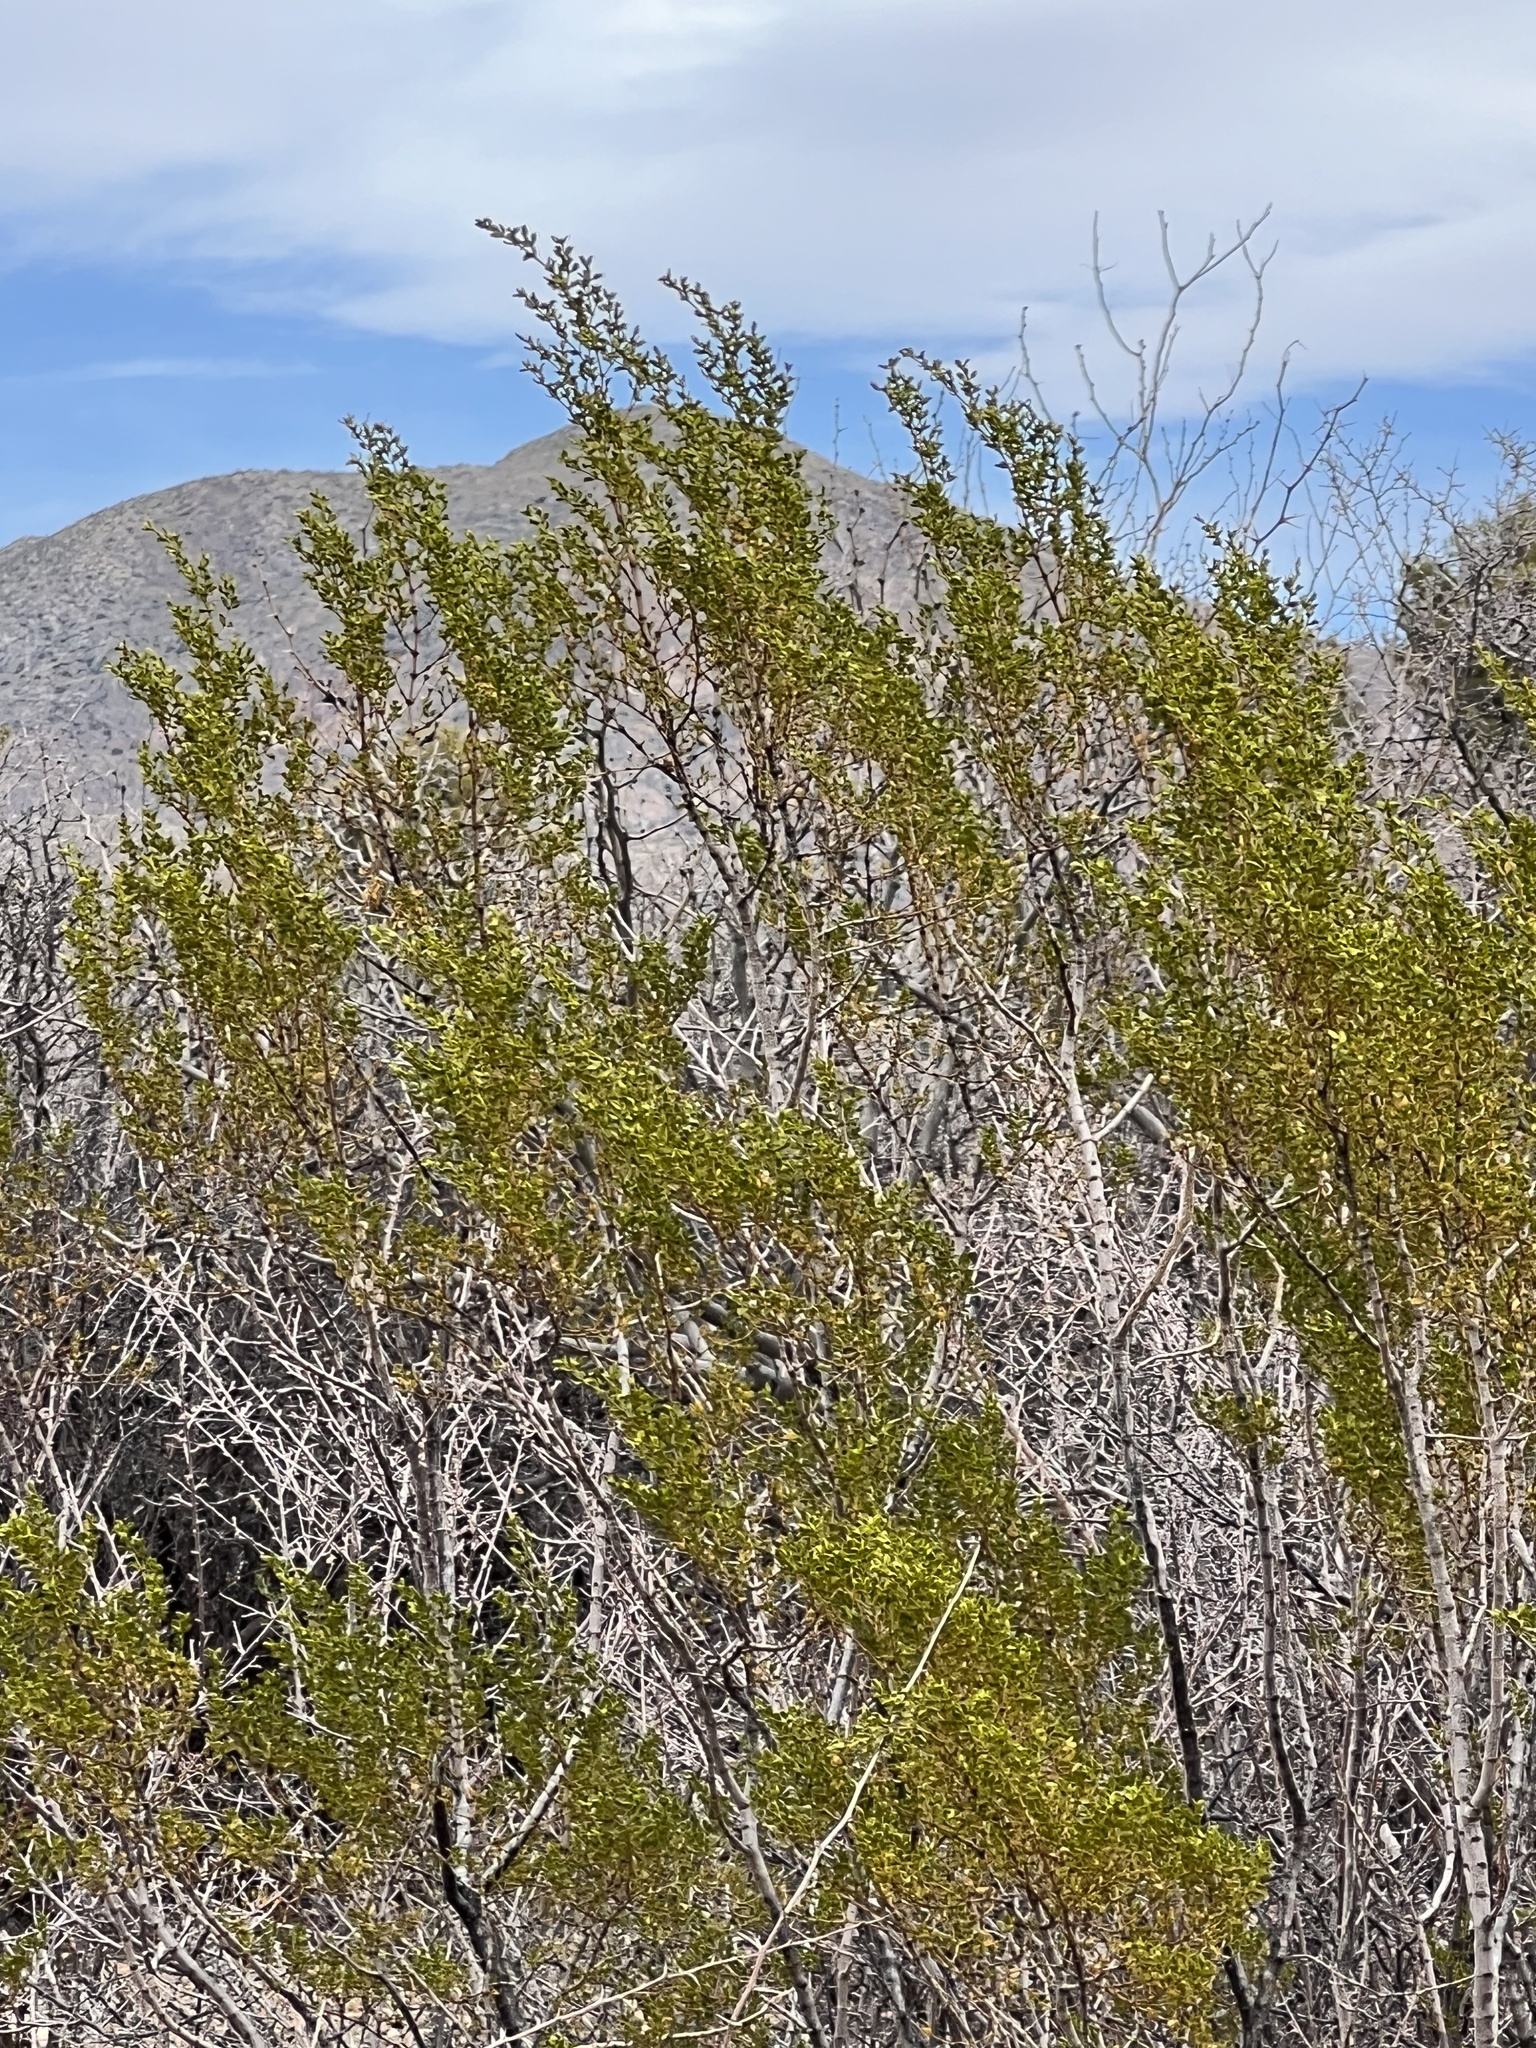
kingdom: Plantae
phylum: Tracheophyta
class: Magnoliopsida
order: Zygophyllales
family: Zygophyllaceae
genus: Larrea
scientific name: Larrea tridentata
